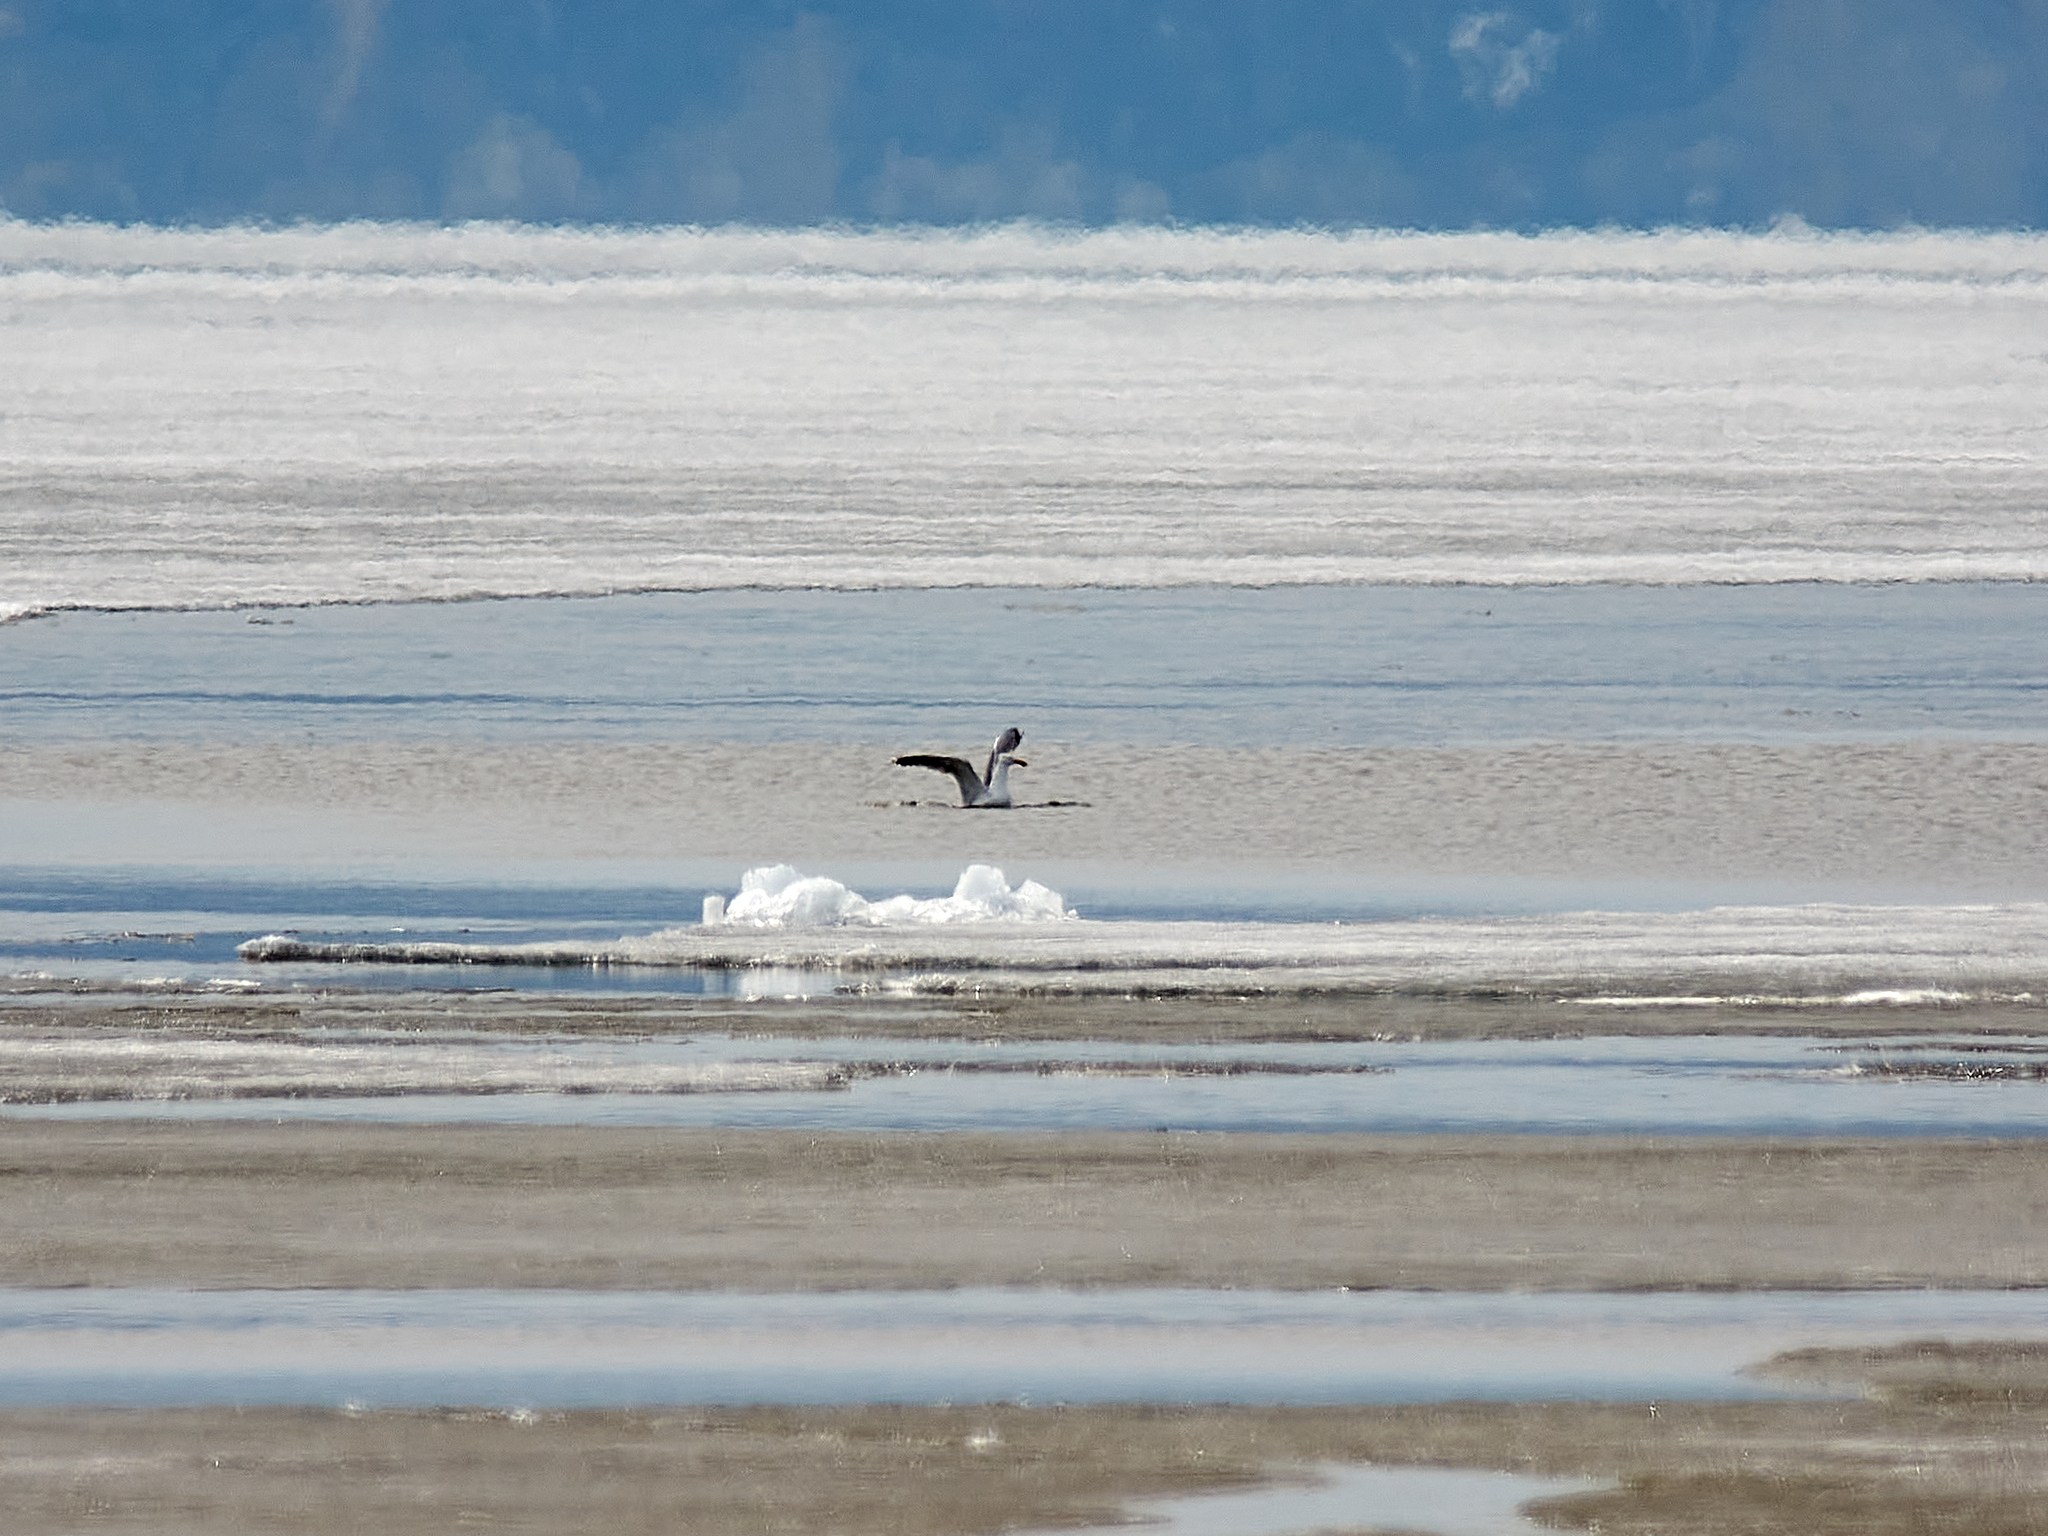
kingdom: Animalia
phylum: Chordata
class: Aves
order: Charadriiformes
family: Laridae
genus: Larus
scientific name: Larus argentatus
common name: Herring gull
